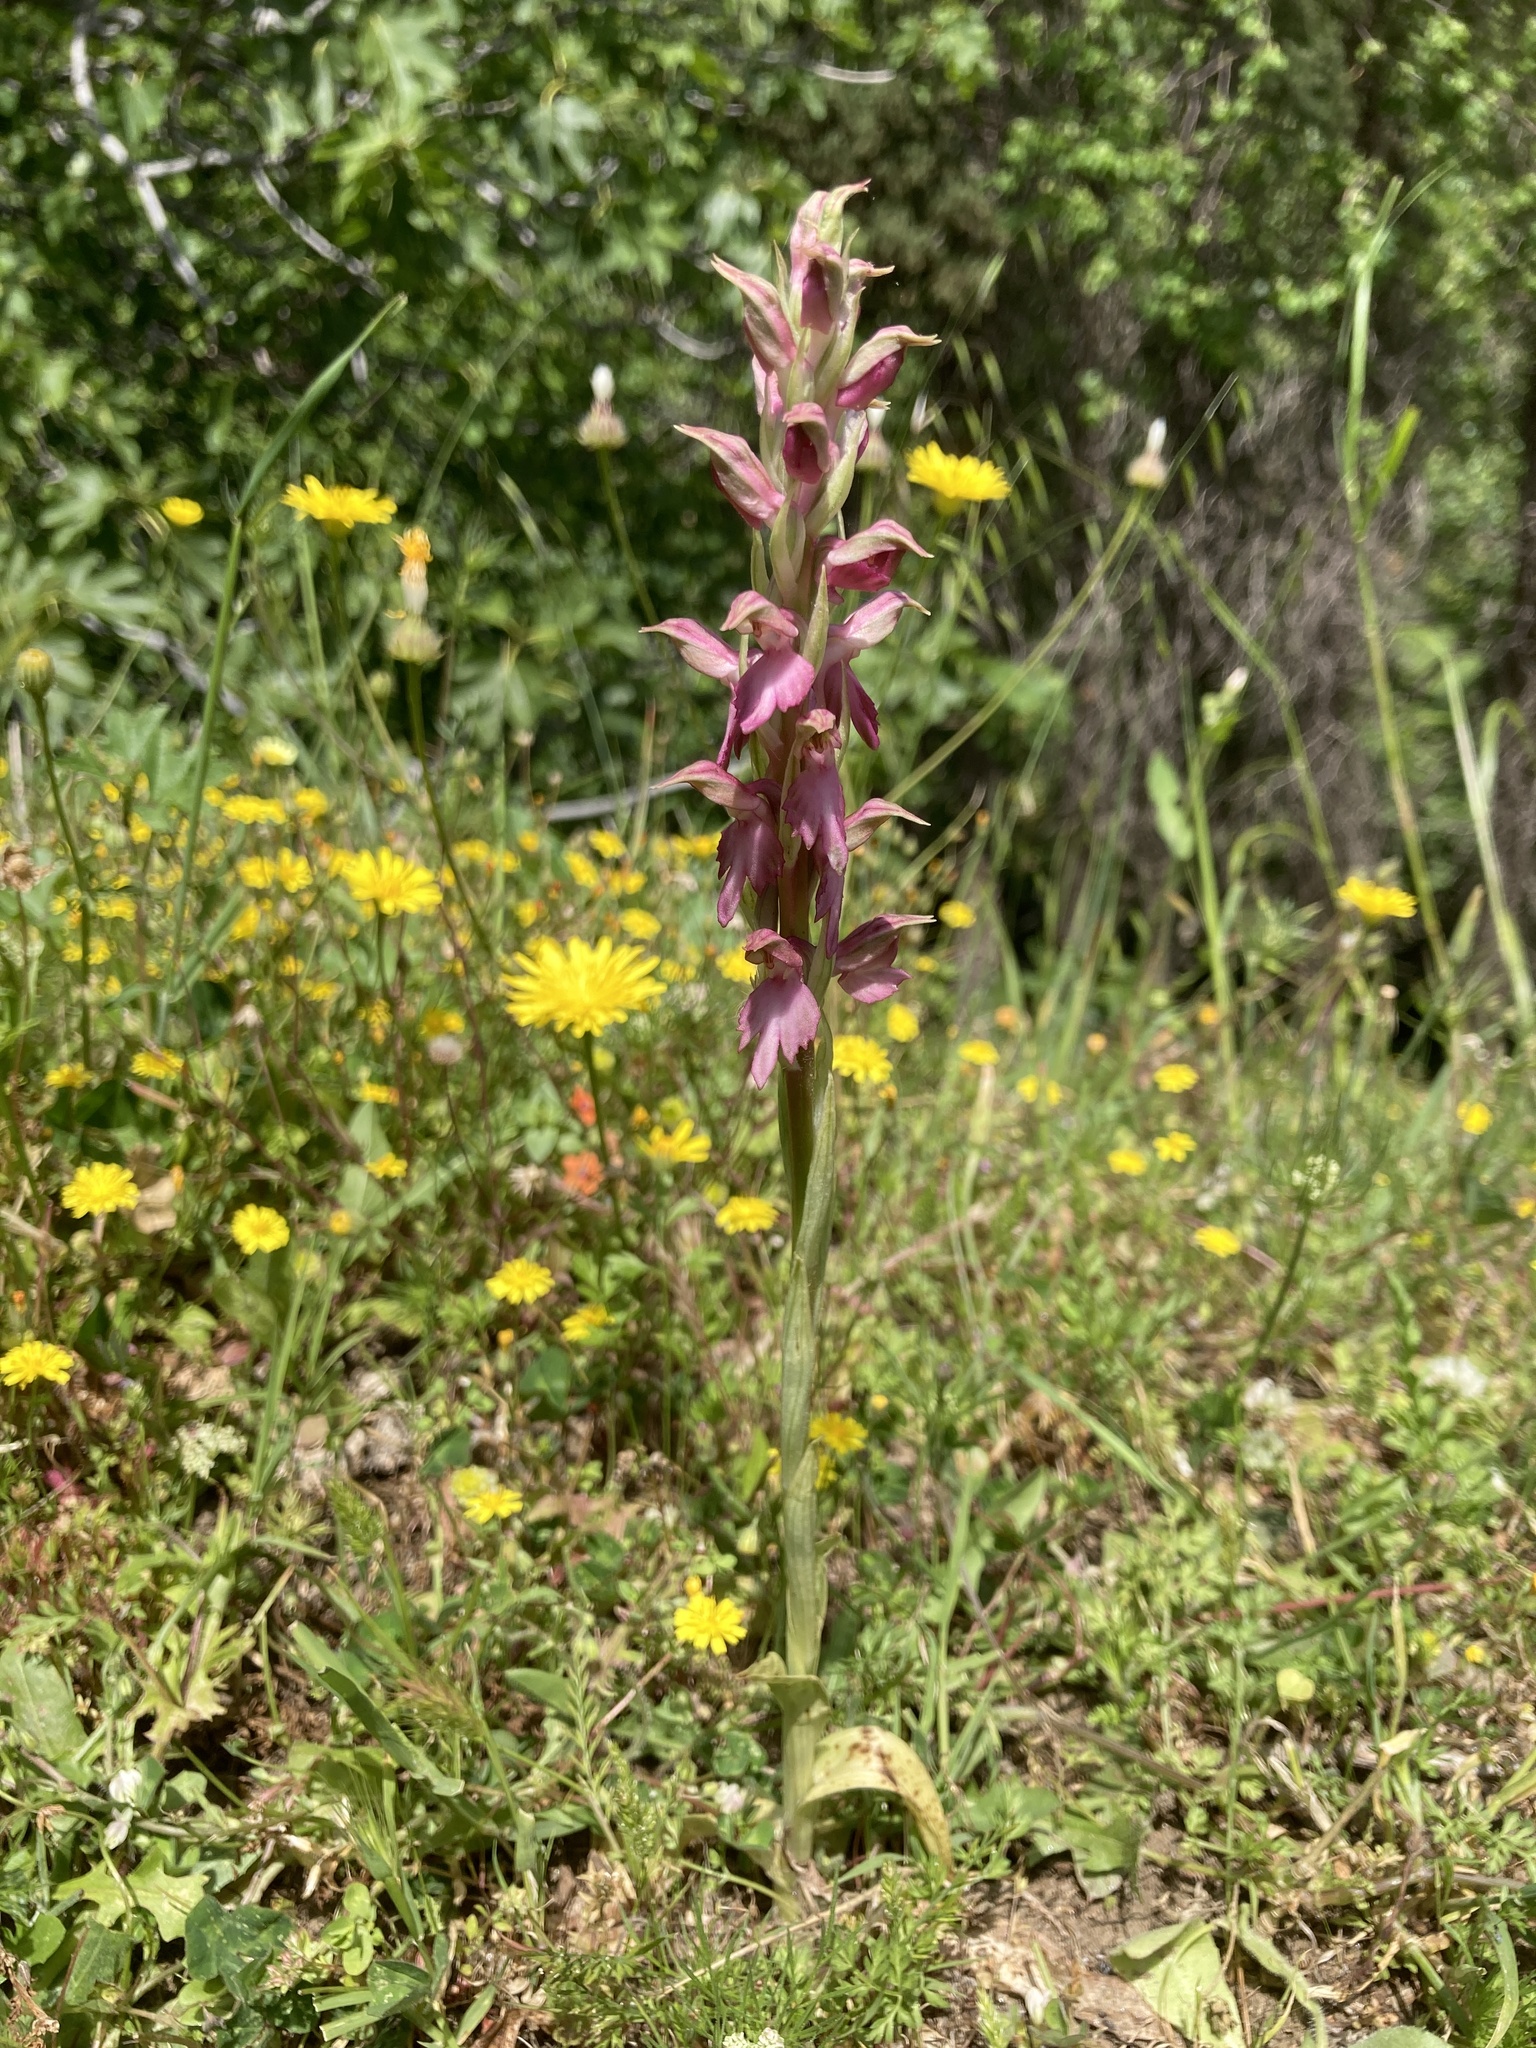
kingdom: Plantae
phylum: Tracheophyta
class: Liliopsida
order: Asparagales
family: Orchidaceae
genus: Anacamptis
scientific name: Anacamptis sancta
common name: Holy orchid
